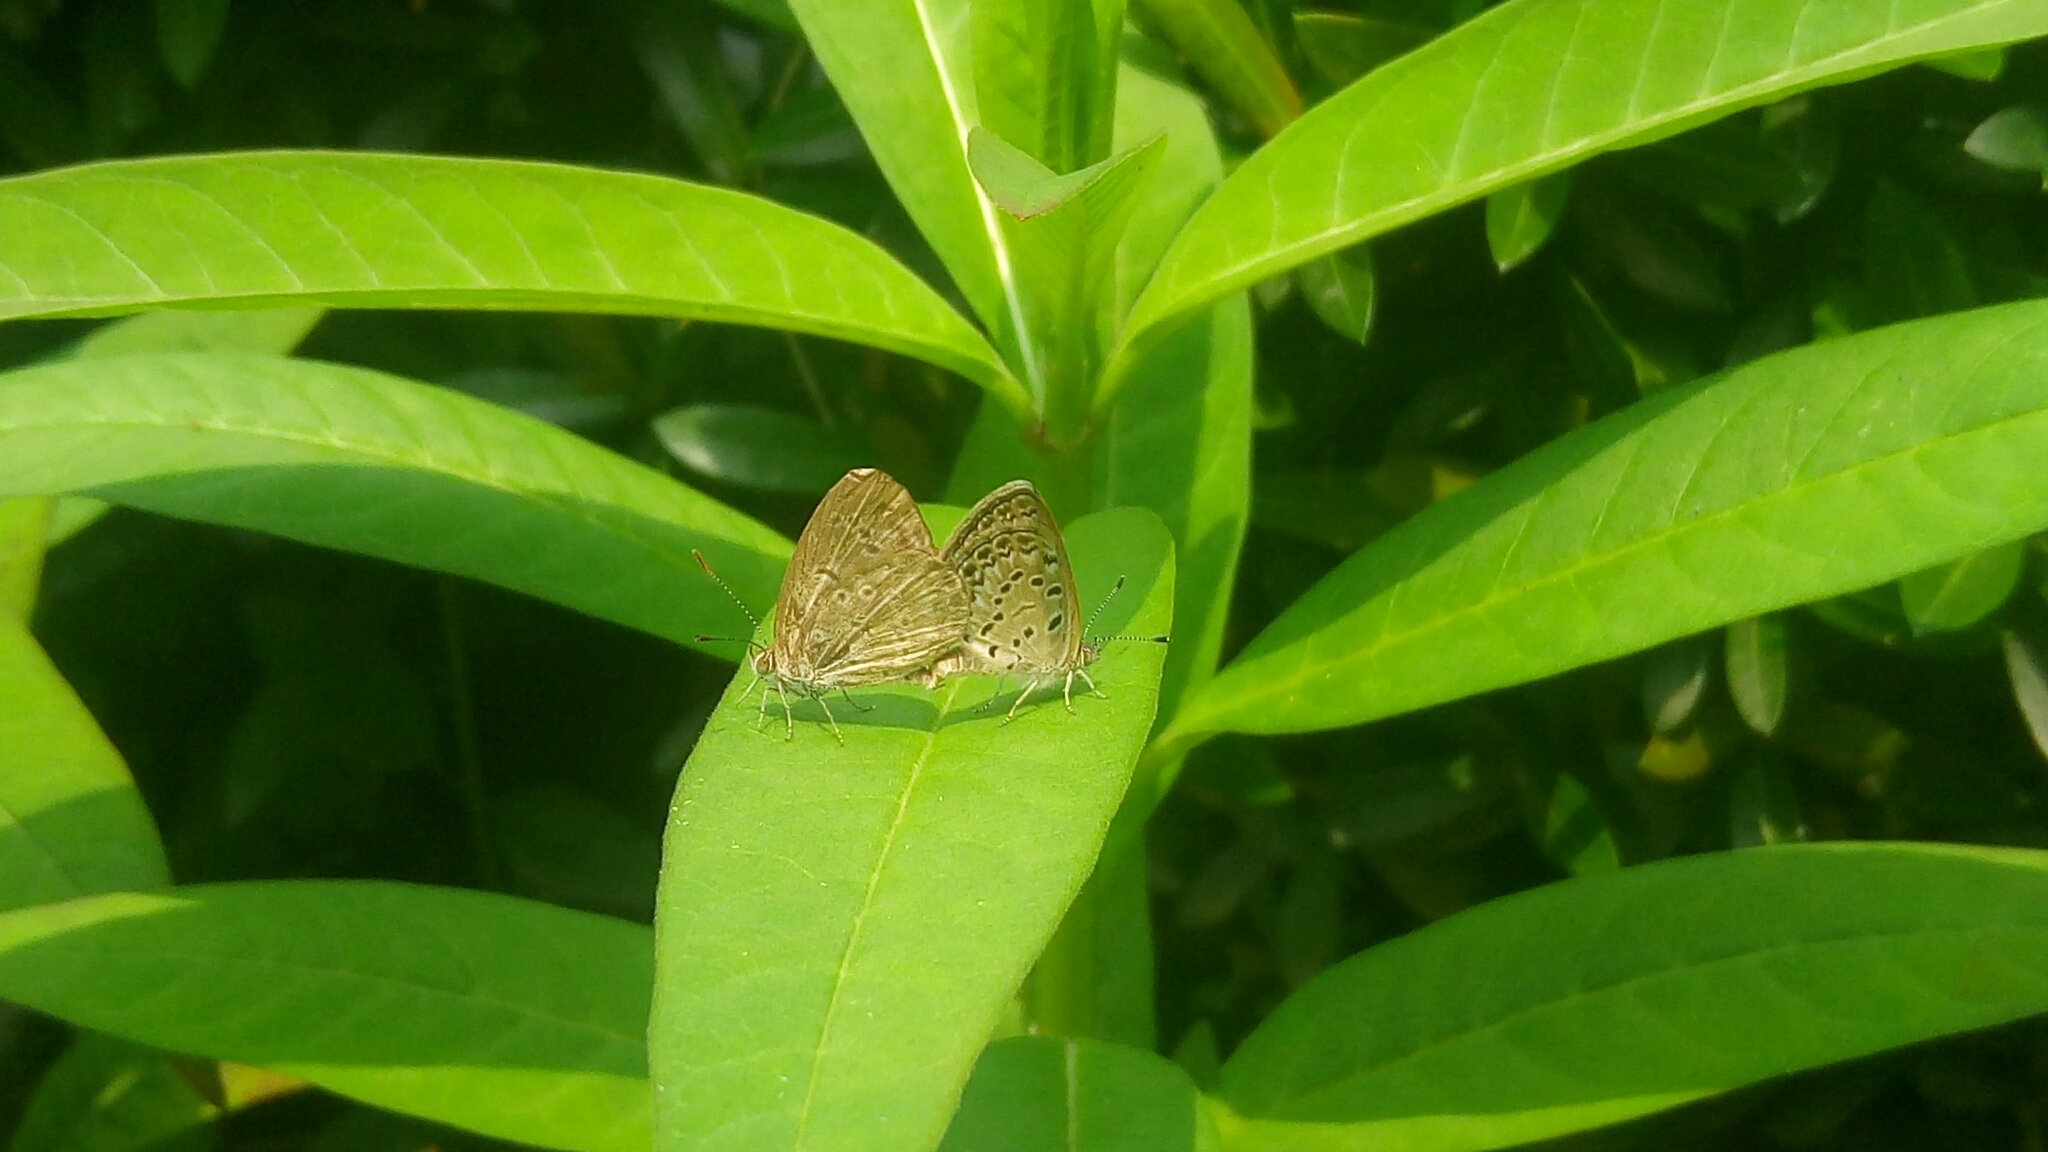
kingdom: Animalia
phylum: Arthropoda
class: Insecta
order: Lepidoptera
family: Lycaenidae
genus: Pseudozizeeria
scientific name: Pseudozizeeria maha
